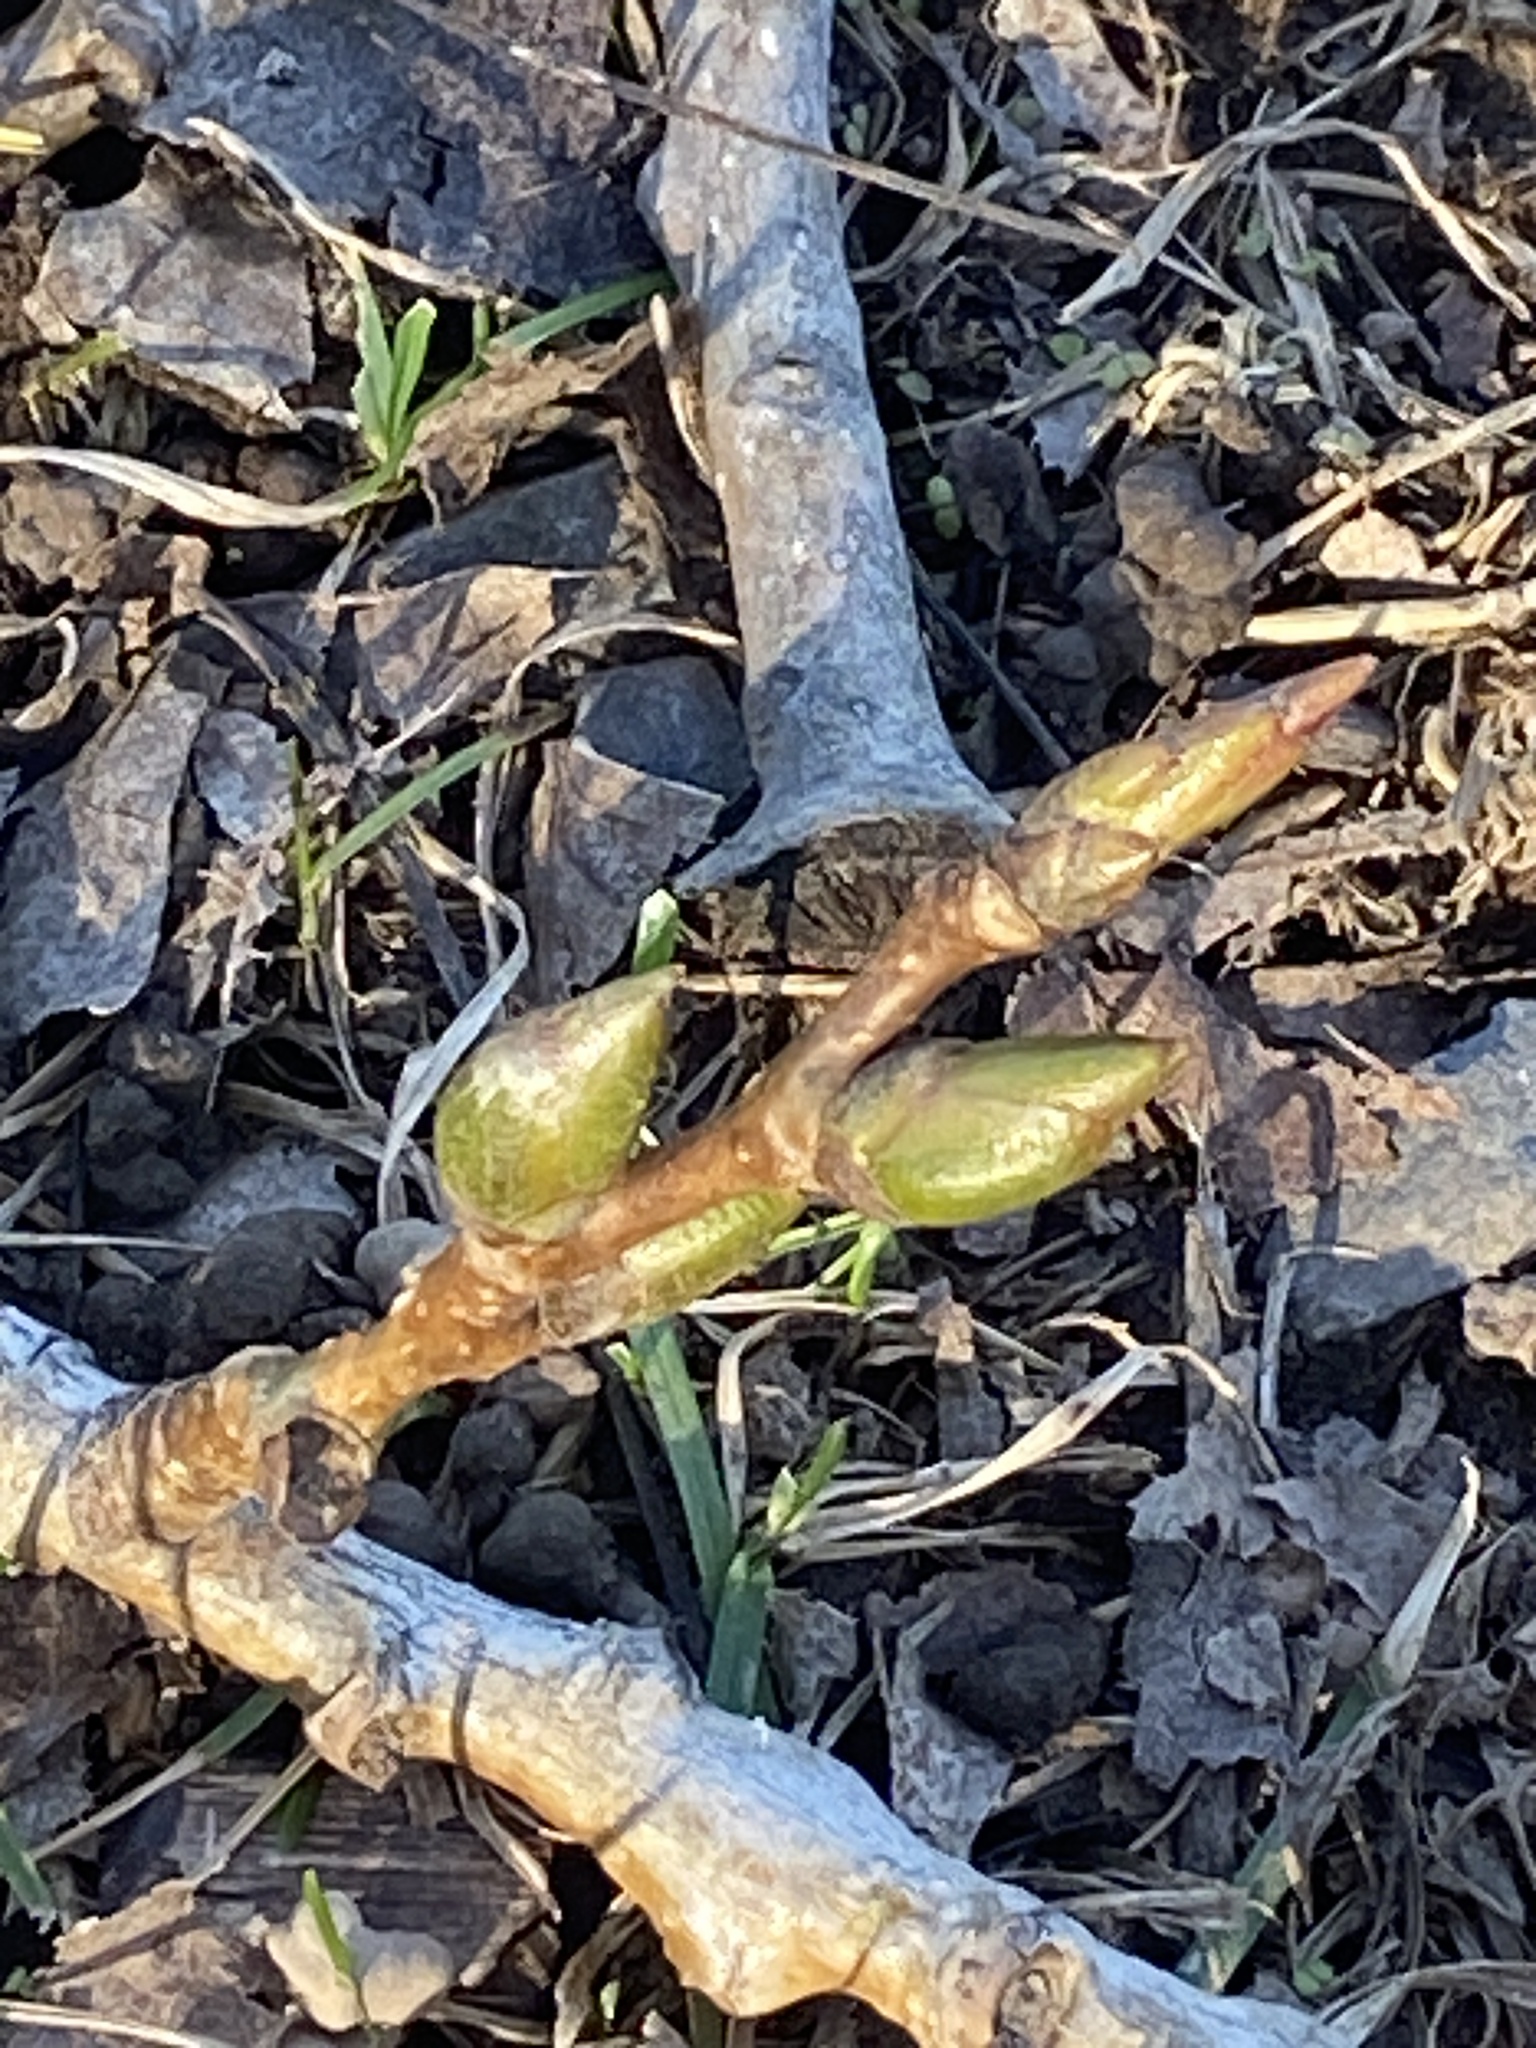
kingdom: Plantae
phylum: Tracheophyta
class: Magnoliopsida
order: Malpighiales
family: Salicaceae
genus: Populus
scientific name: Populus deltoides
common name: Eastern cottonwood
